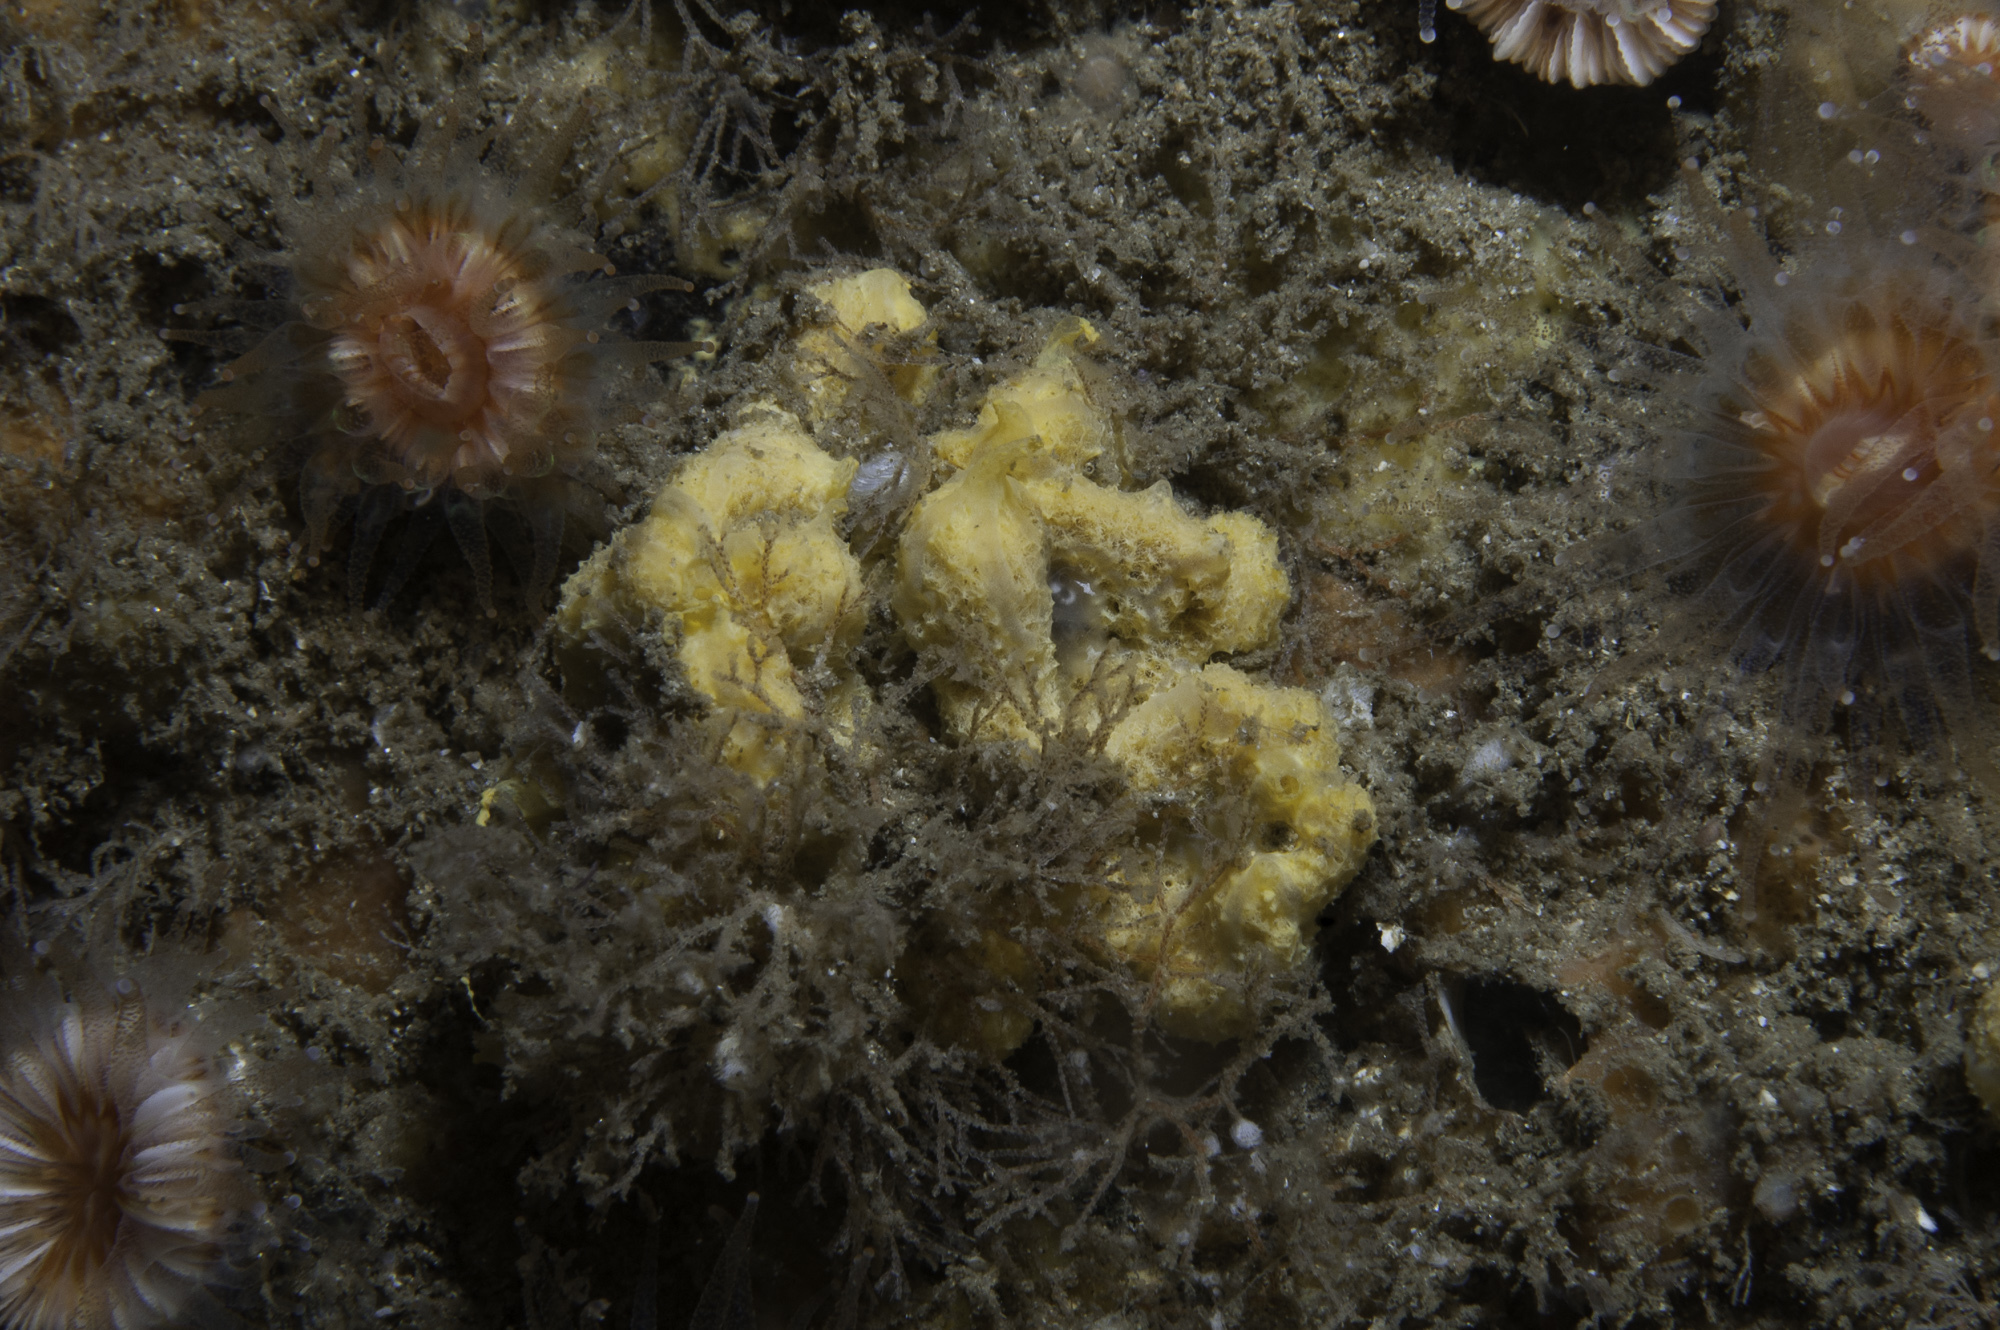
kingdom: Animalia
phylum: Porifera
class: Demospongiae
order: Axinellida
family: Axinellidae
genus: Axinella
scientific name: Axinella damicornis
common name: Crumpled duster sponge
